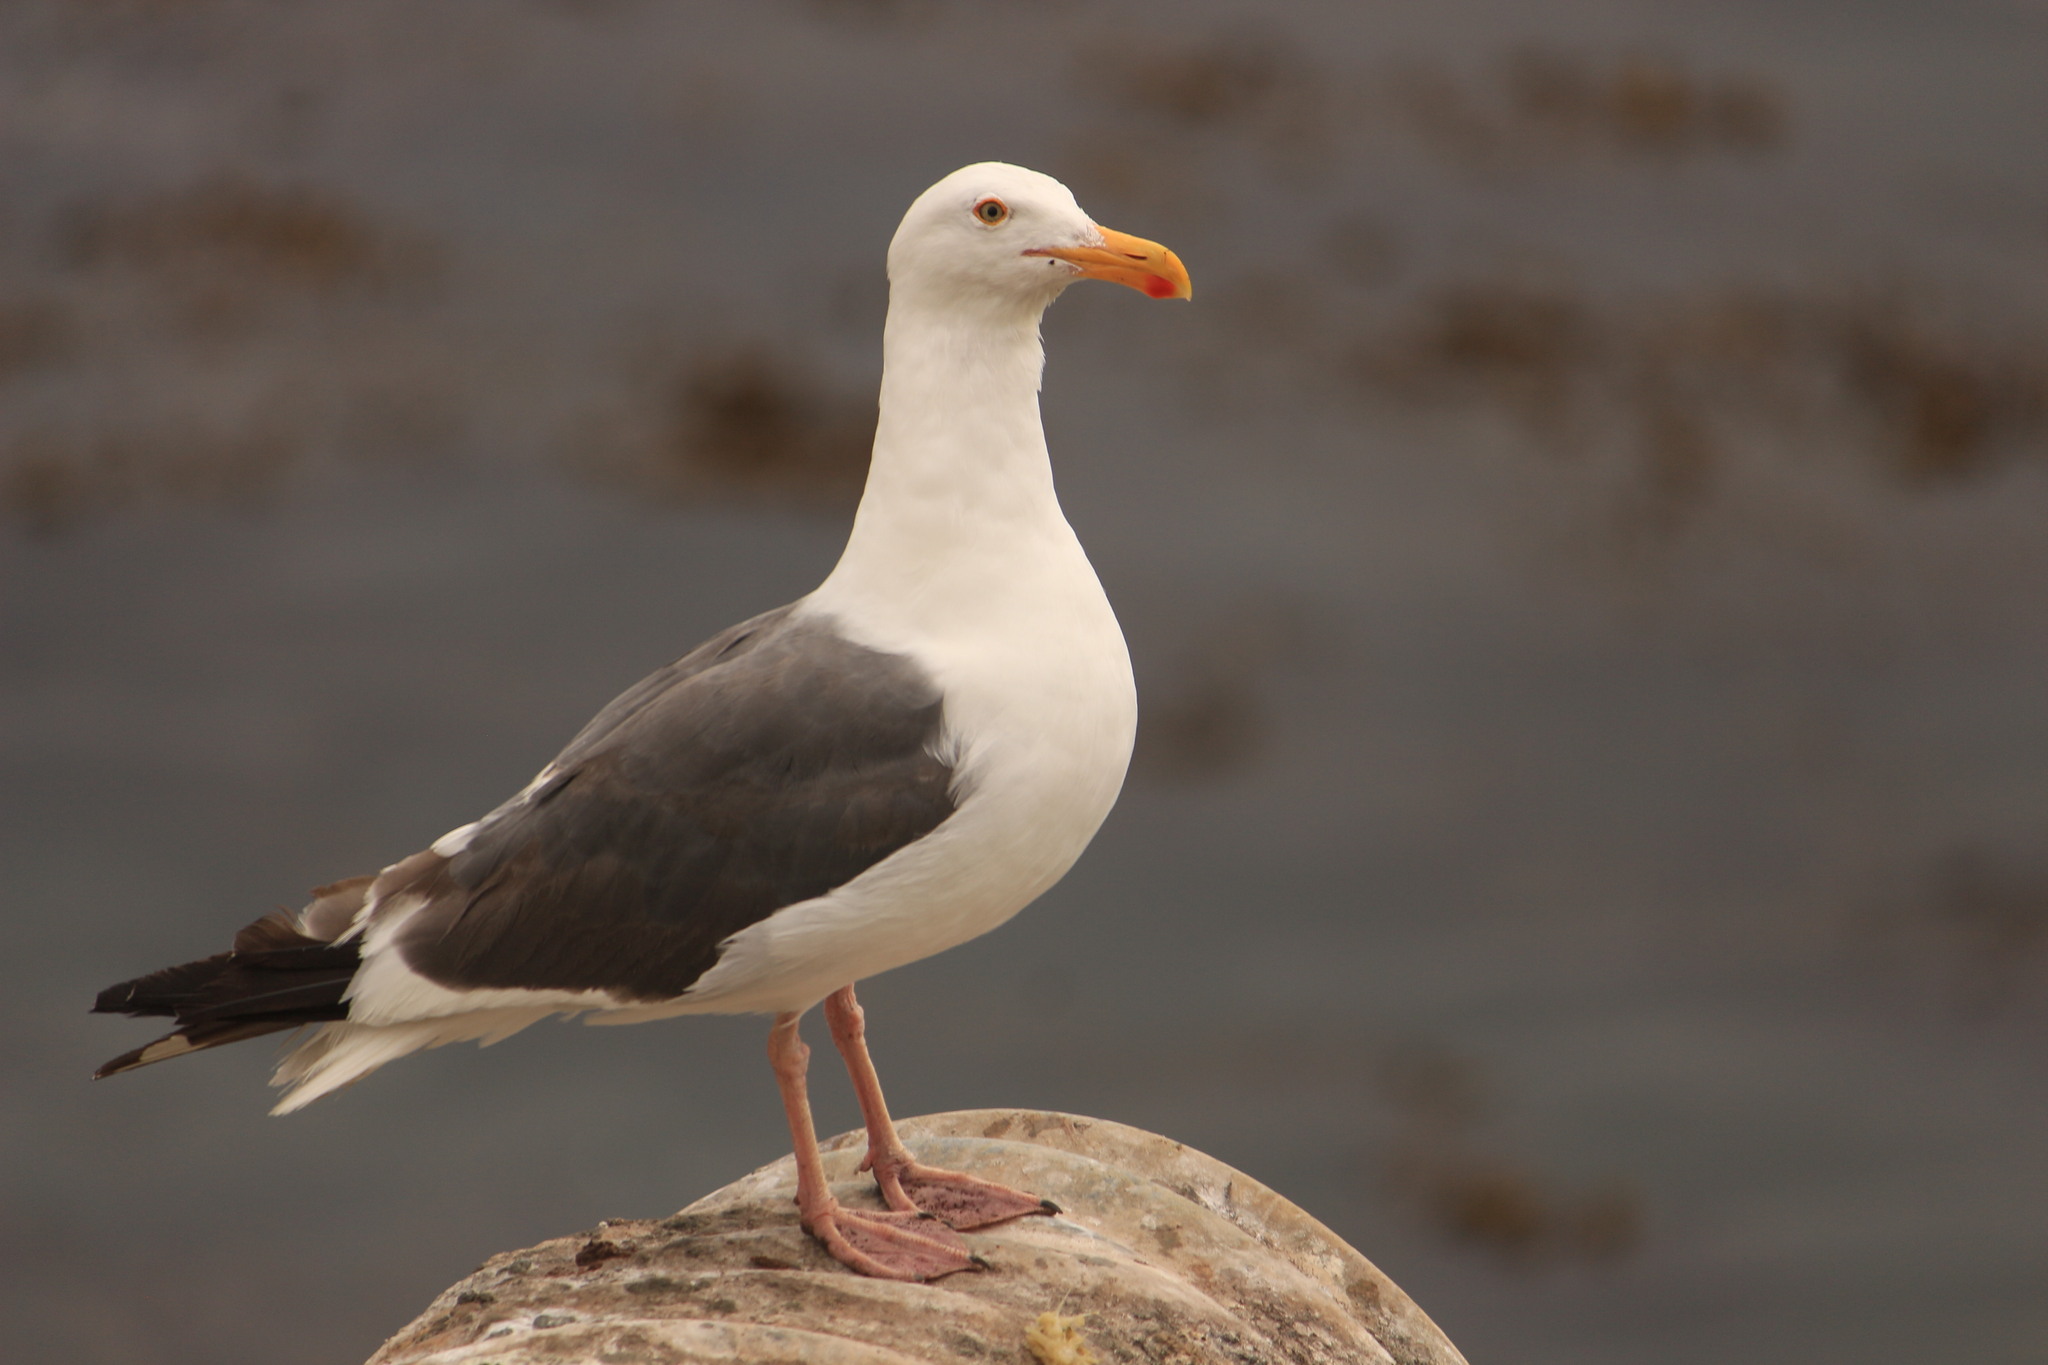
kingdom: Animalia
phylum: Chordata
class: Aves
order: Charadriiformes
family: Laridae
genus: Larus
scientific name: Larus occidentalis
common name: Western gull
